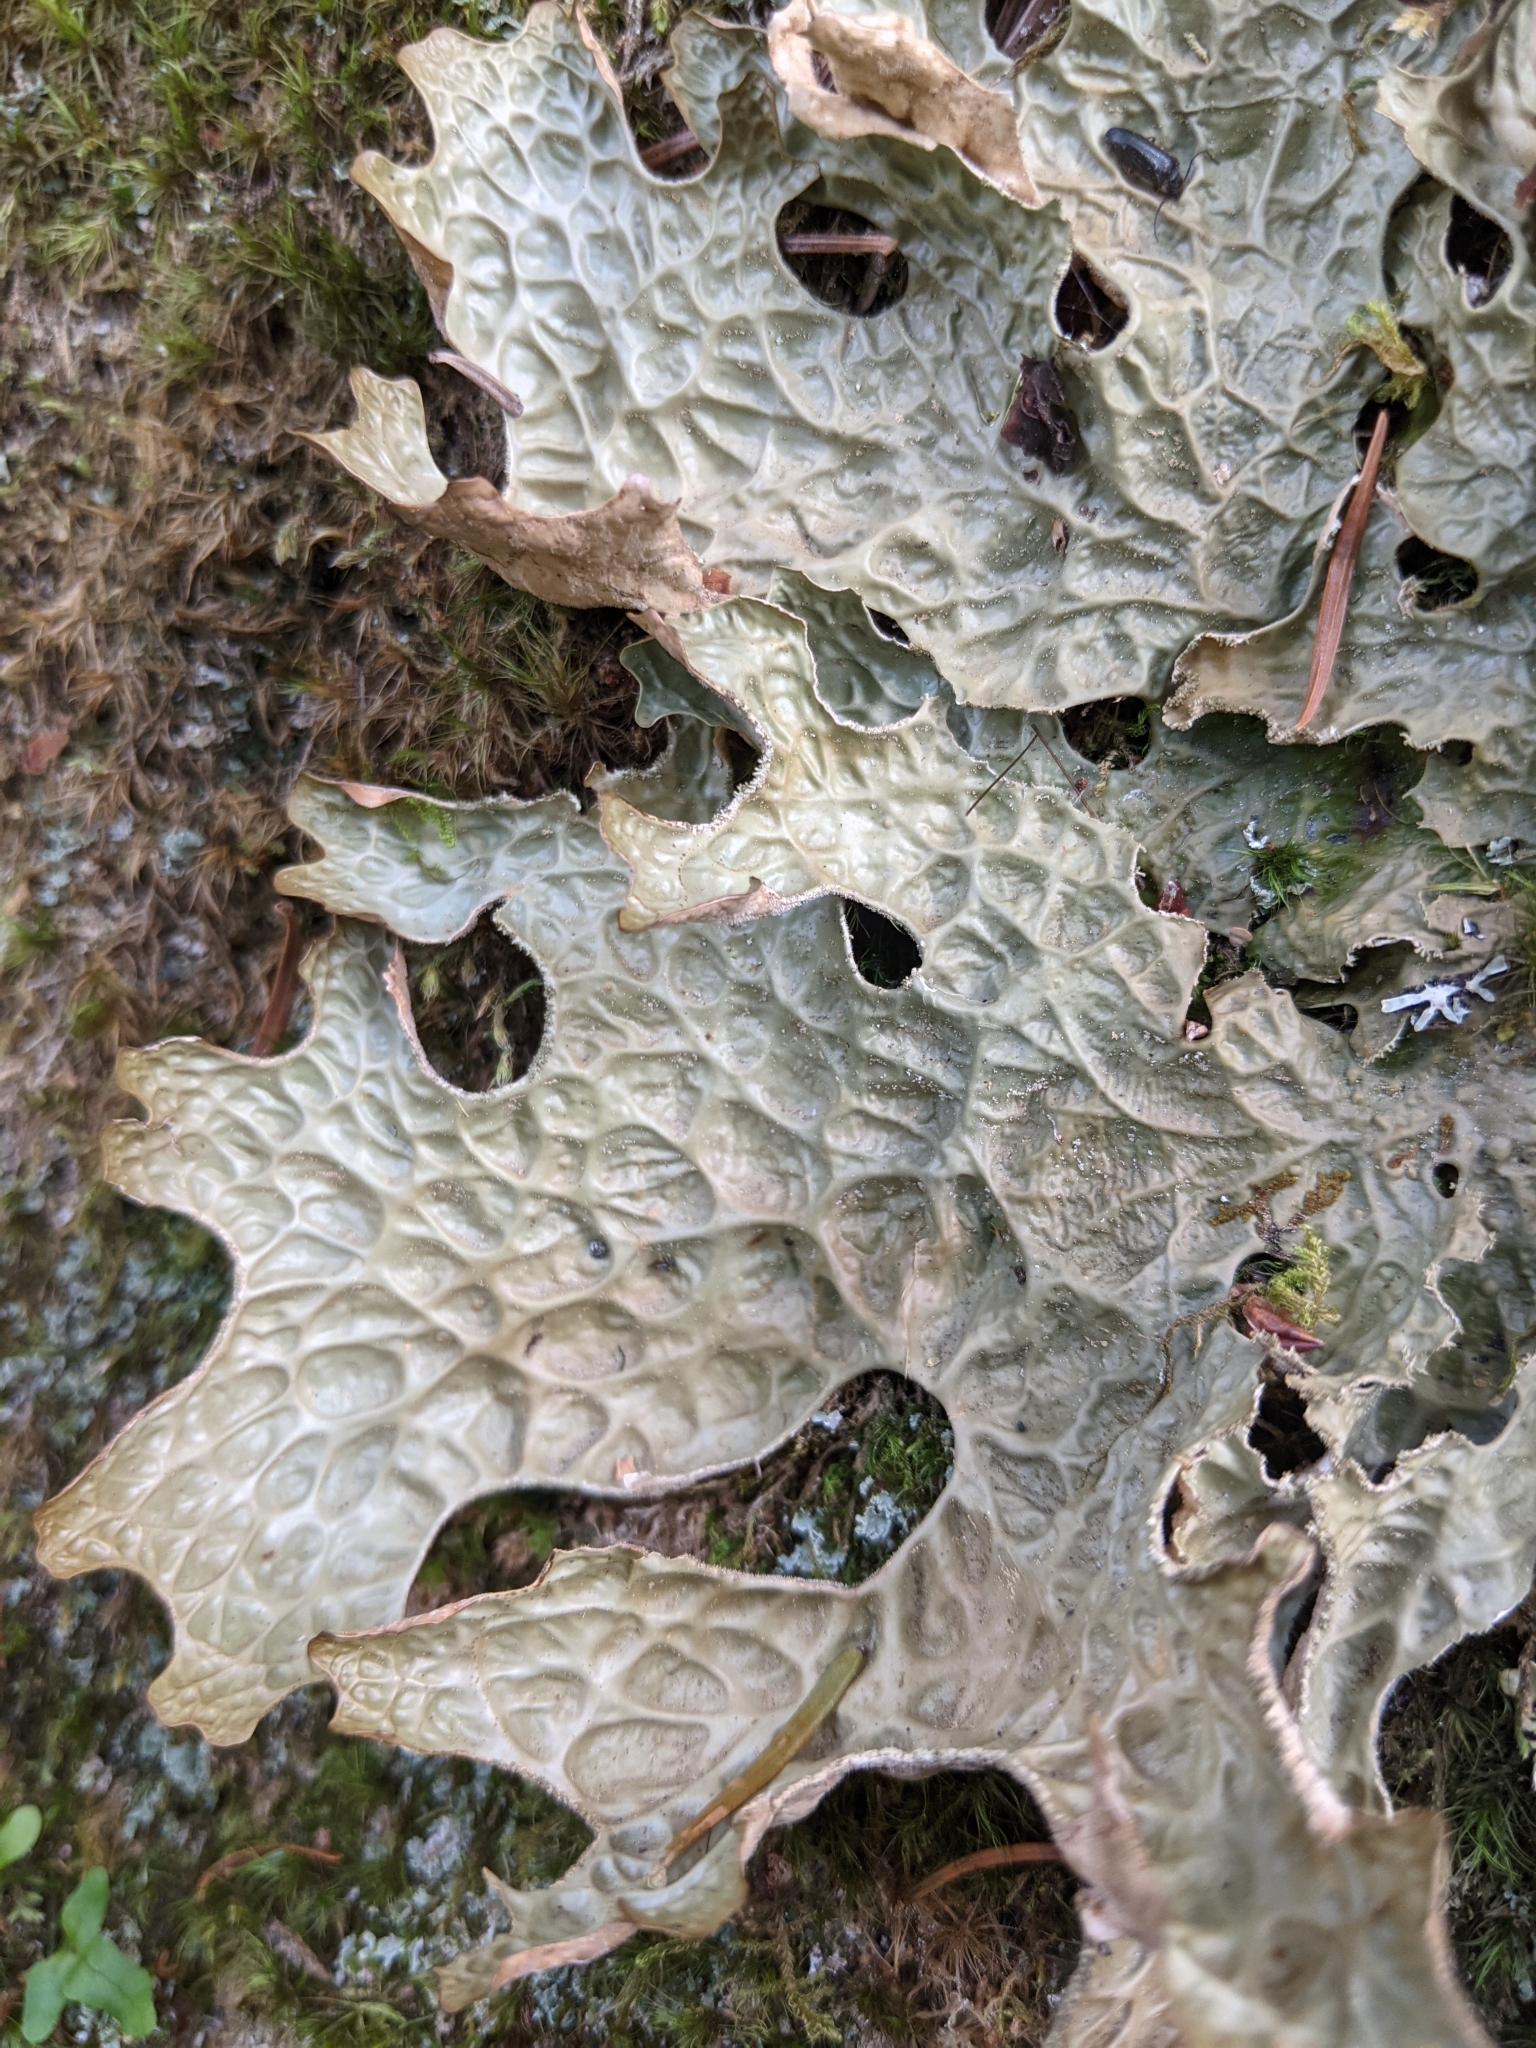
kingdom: Fungi
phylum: Ascomycota
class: Lecanoromycetes
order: Peltigerales
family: Lobariaceae
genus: Lobaria
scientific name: Lobaria pulmonaria
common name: Lungwort
